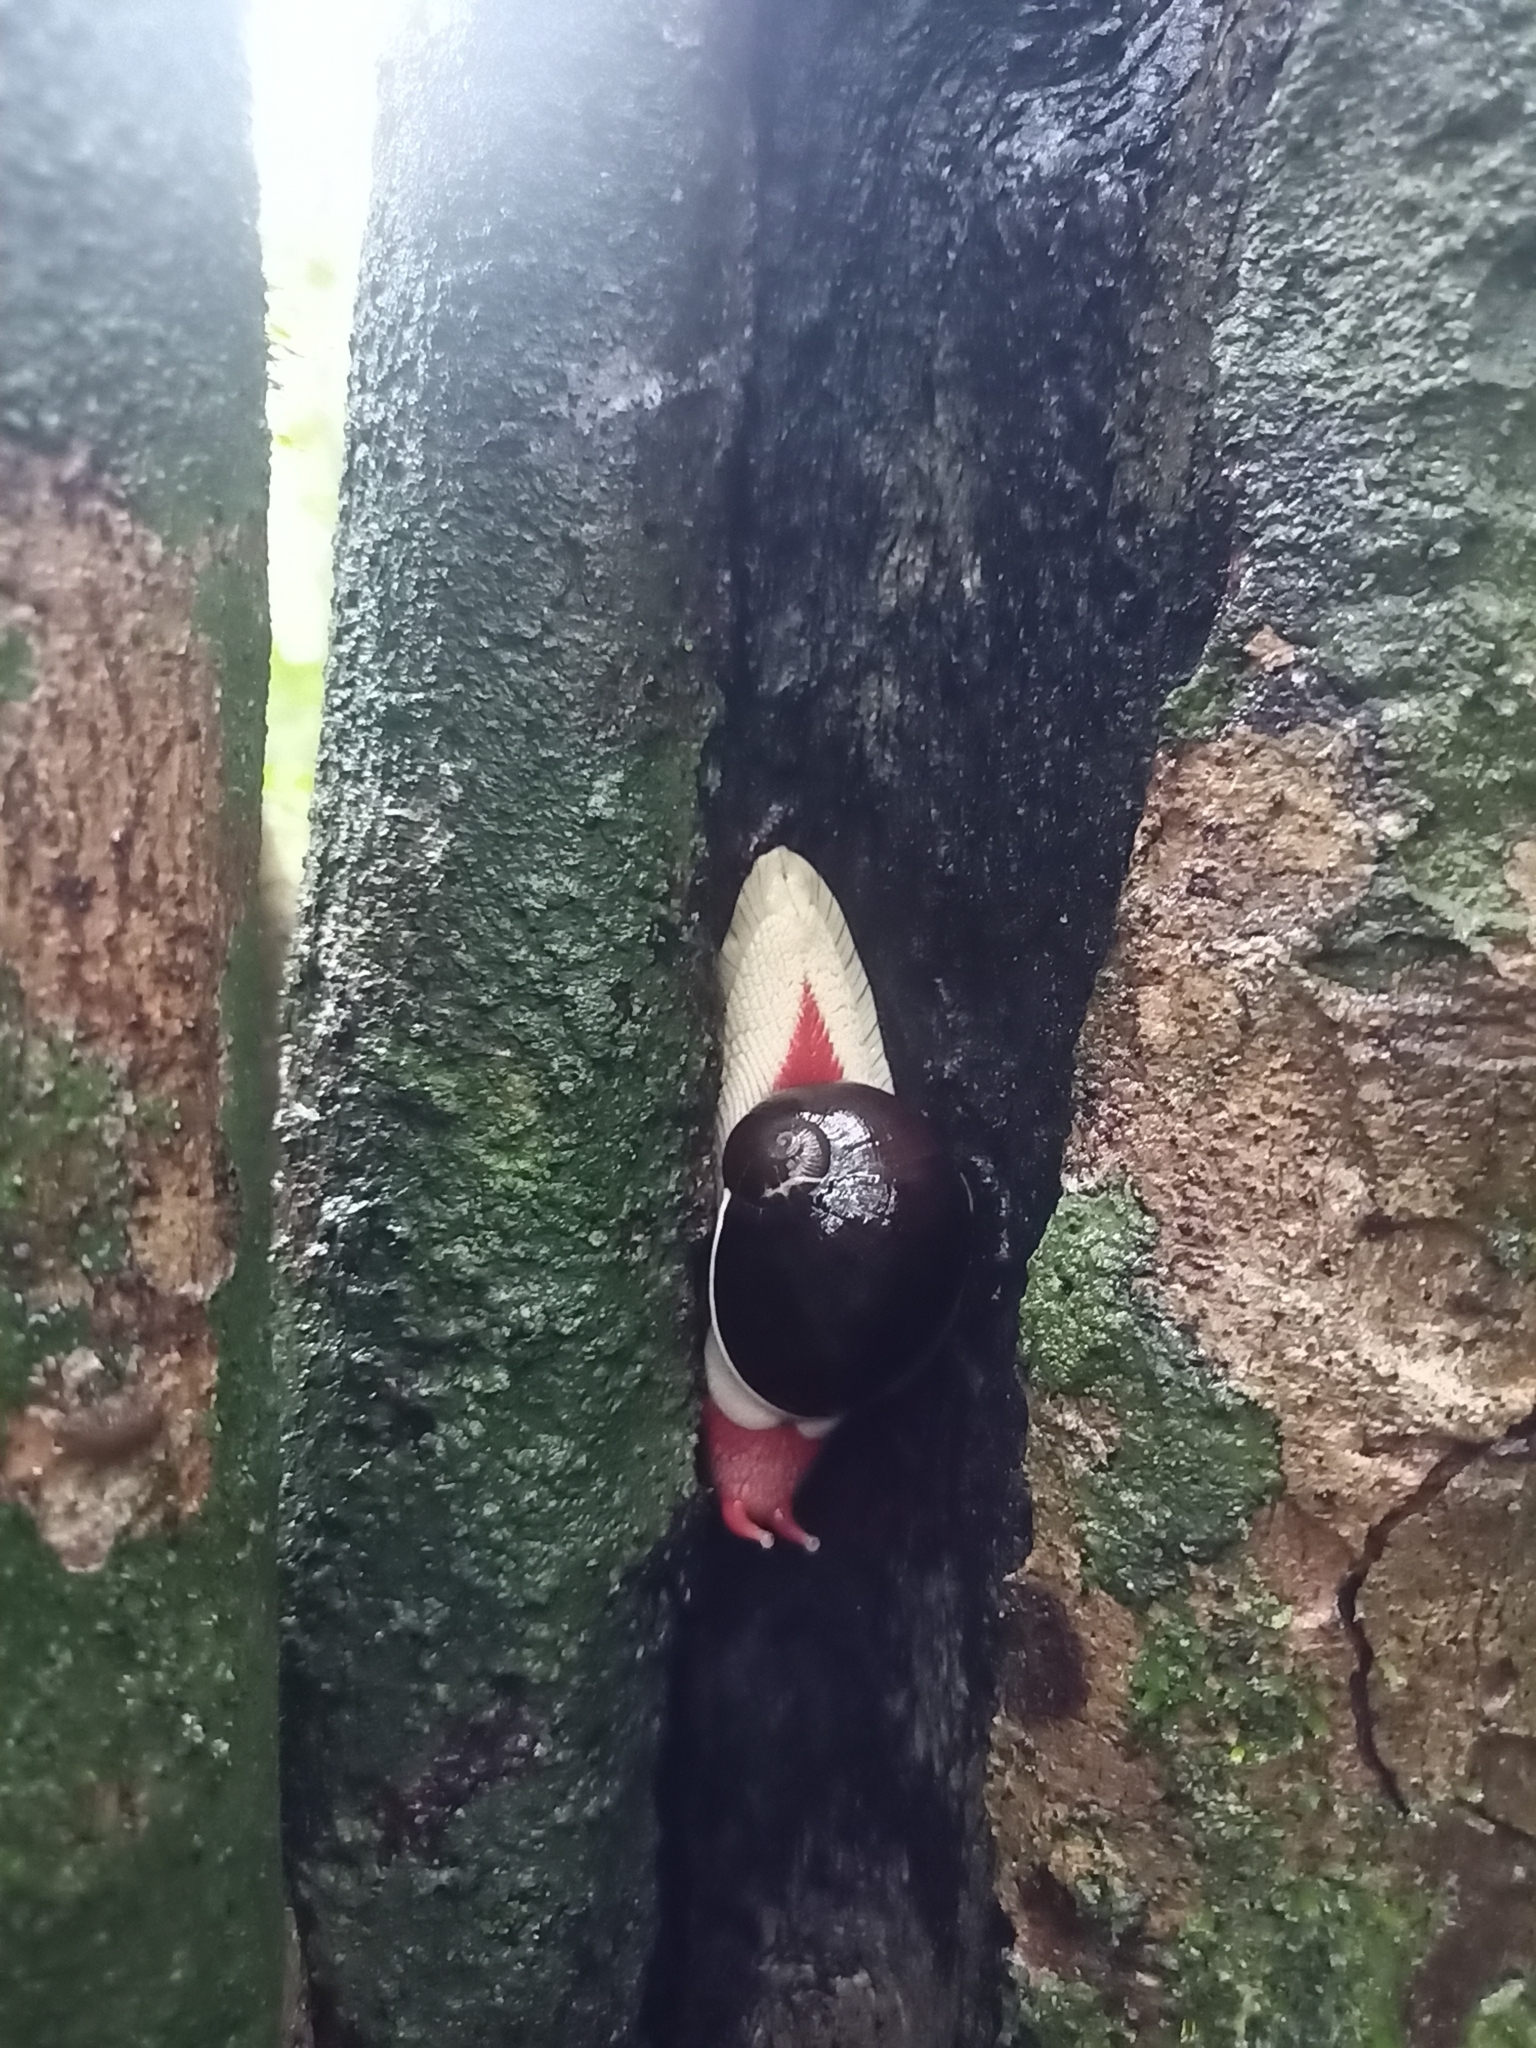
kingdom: Animalia
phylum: Mollusca
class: Gastropoda
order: Stylommatophora
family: Ariophantidae
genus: Indrella
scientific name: Indrella ampulla
